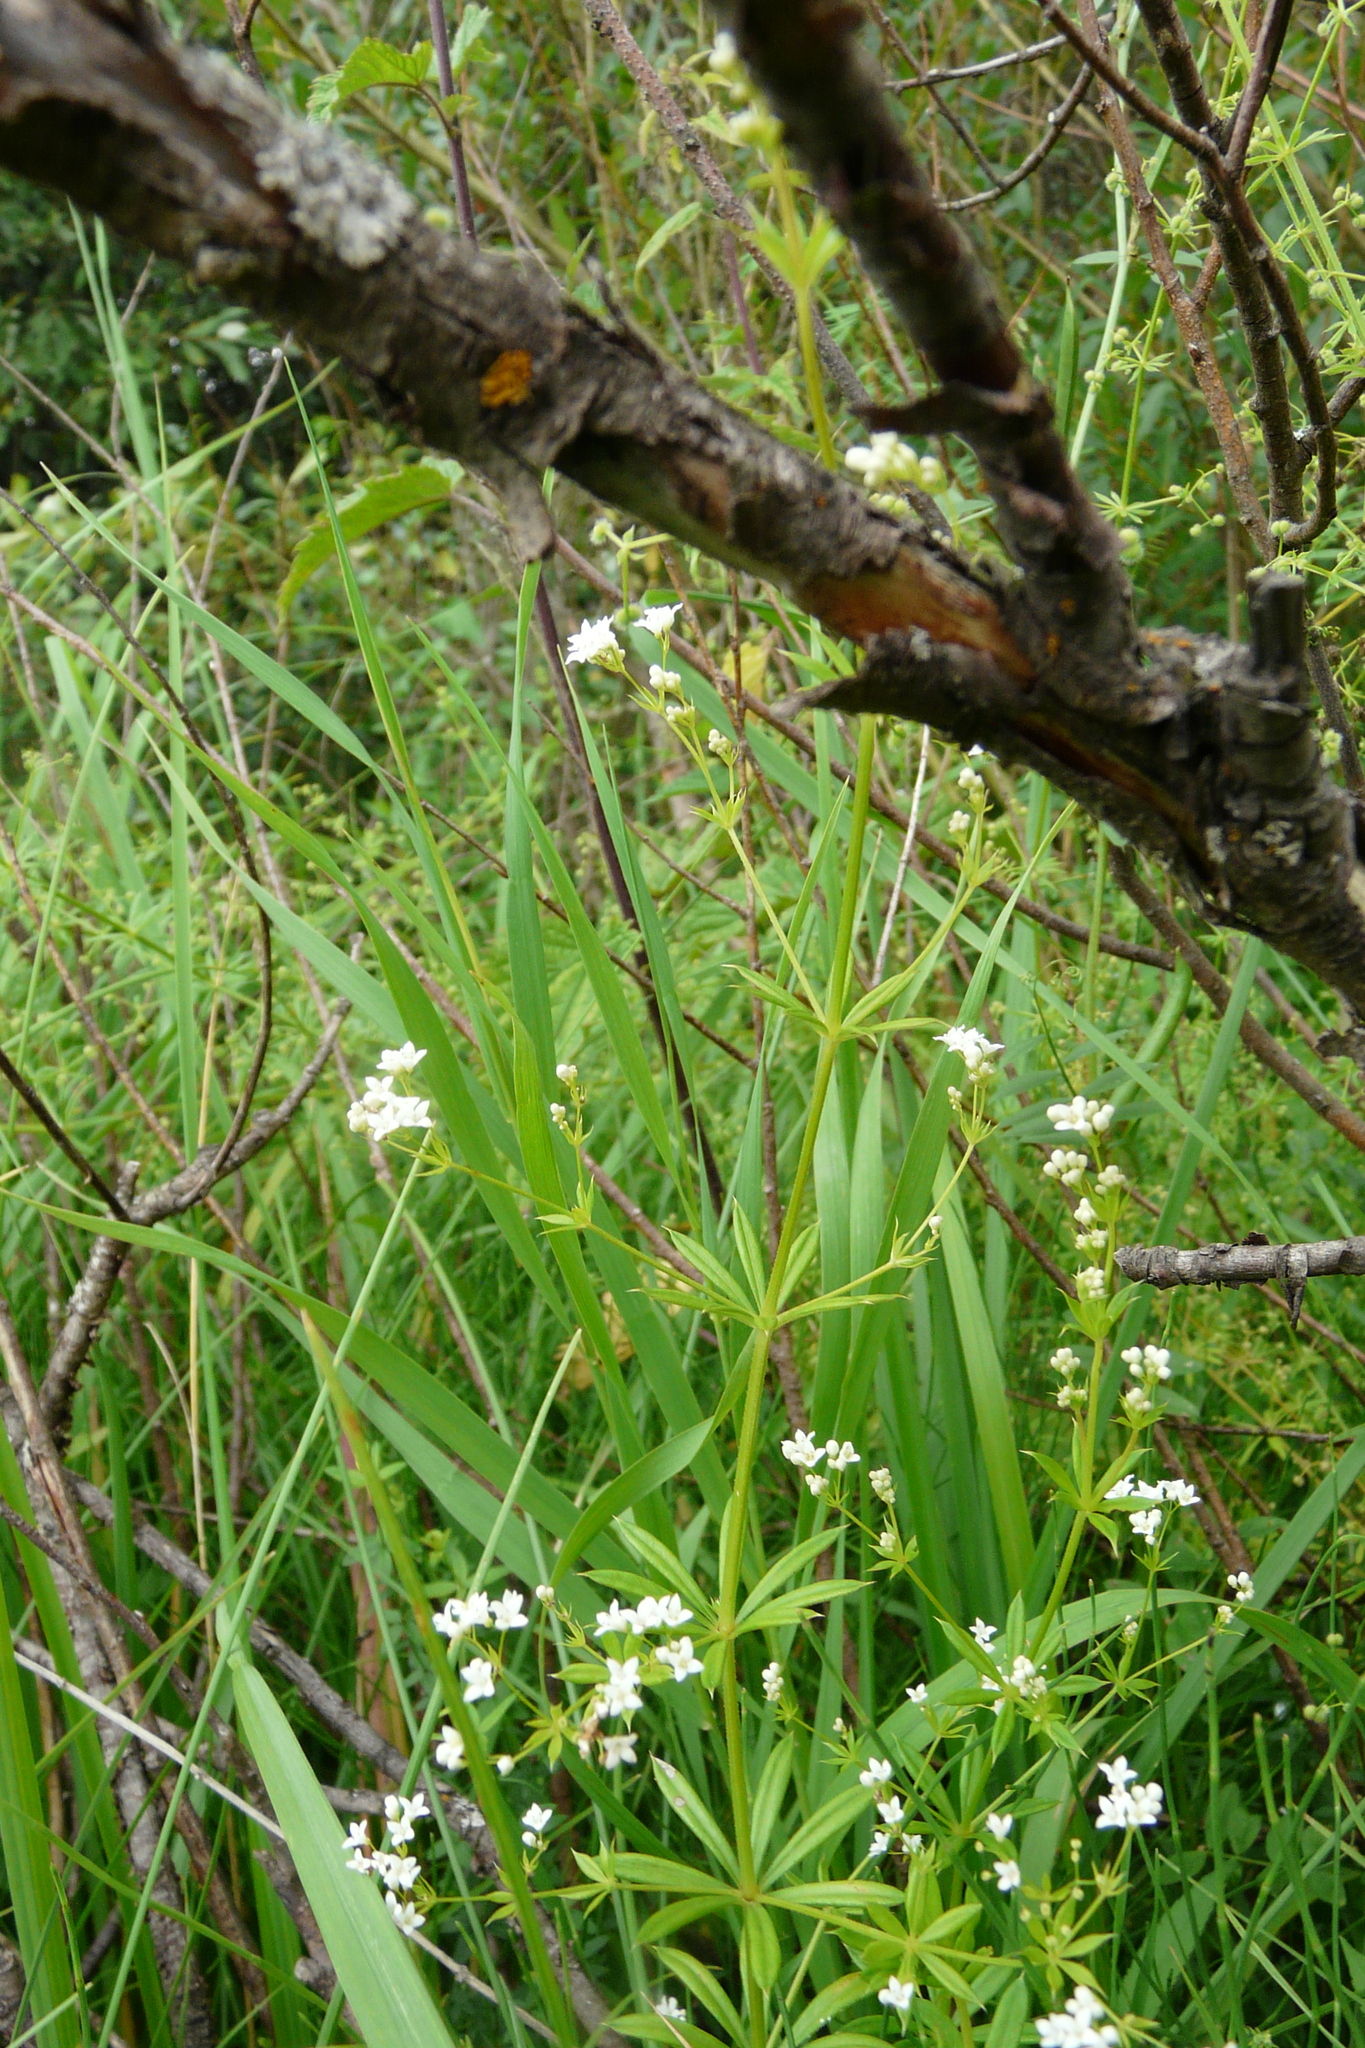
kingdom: Plantae
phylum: Tracheophyta
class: Magnoliopsida
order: Gentianales
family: Rubiaceae
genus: Galium
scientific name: Galium rivale
